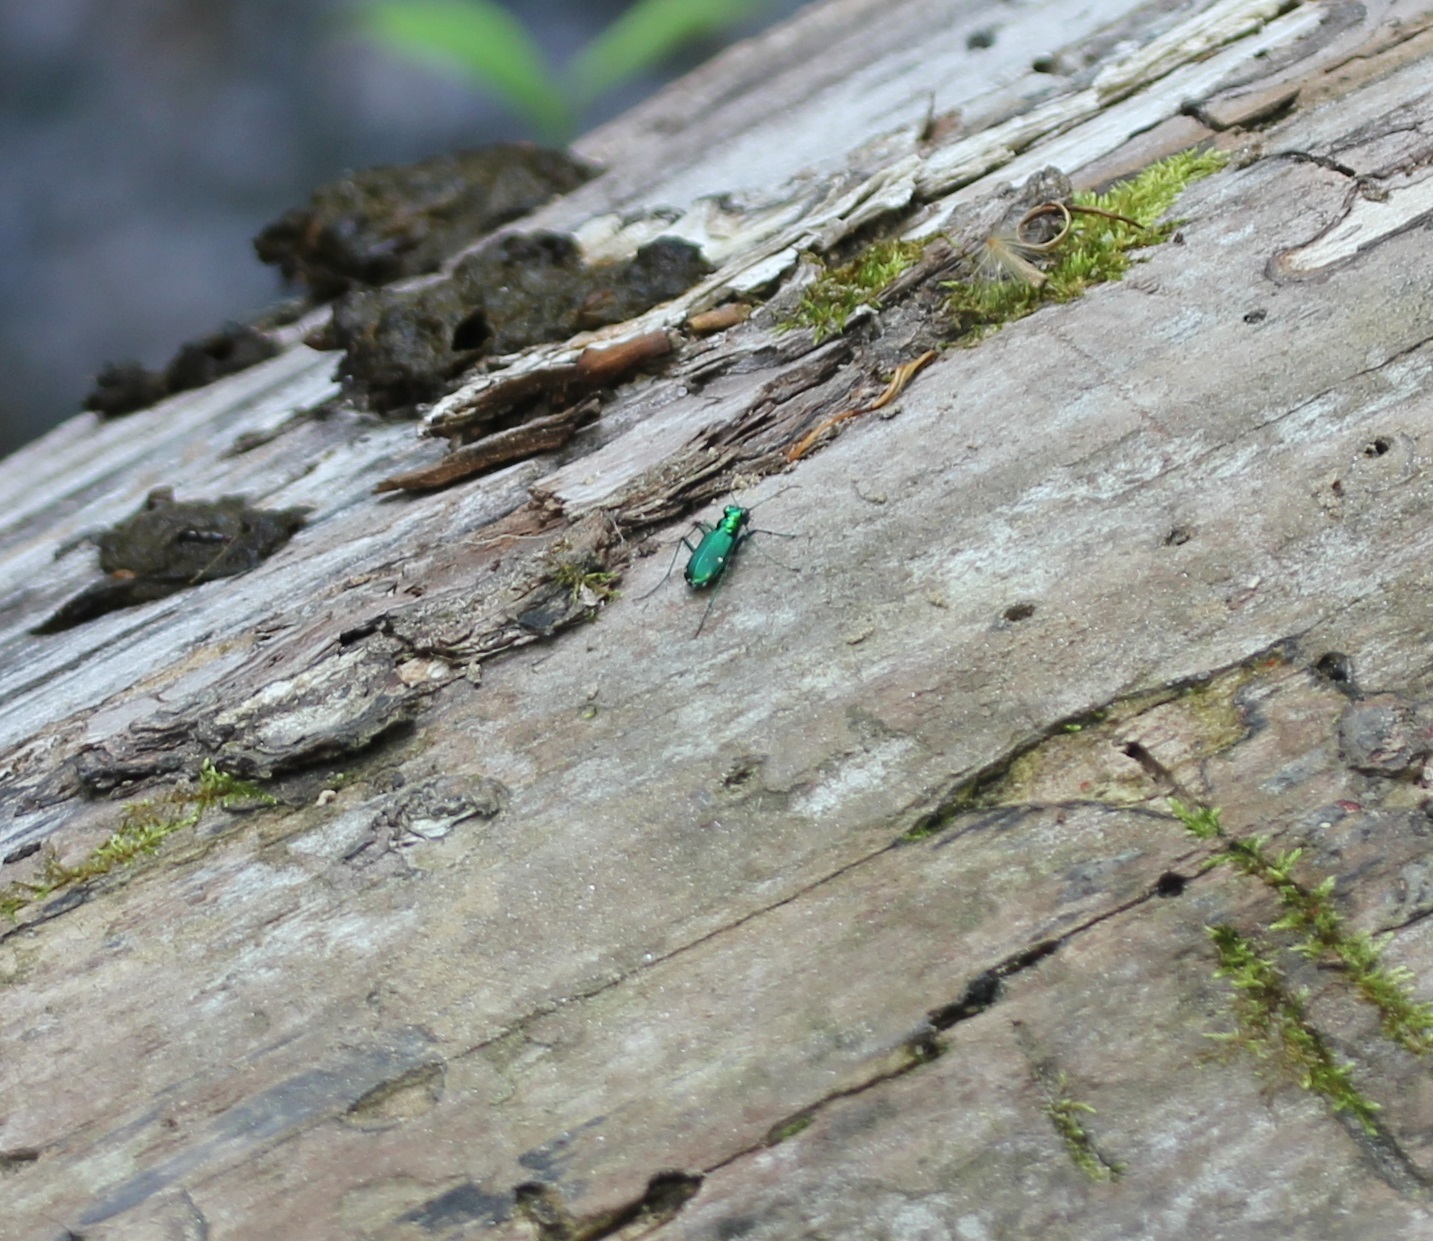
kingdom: Animalia
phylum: Arthropoda
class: Insecta
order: Coleoptera
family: Carabidae
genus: Cicindela
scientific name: Cicindela sexguttata
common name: Six-spotted tiger beetle
